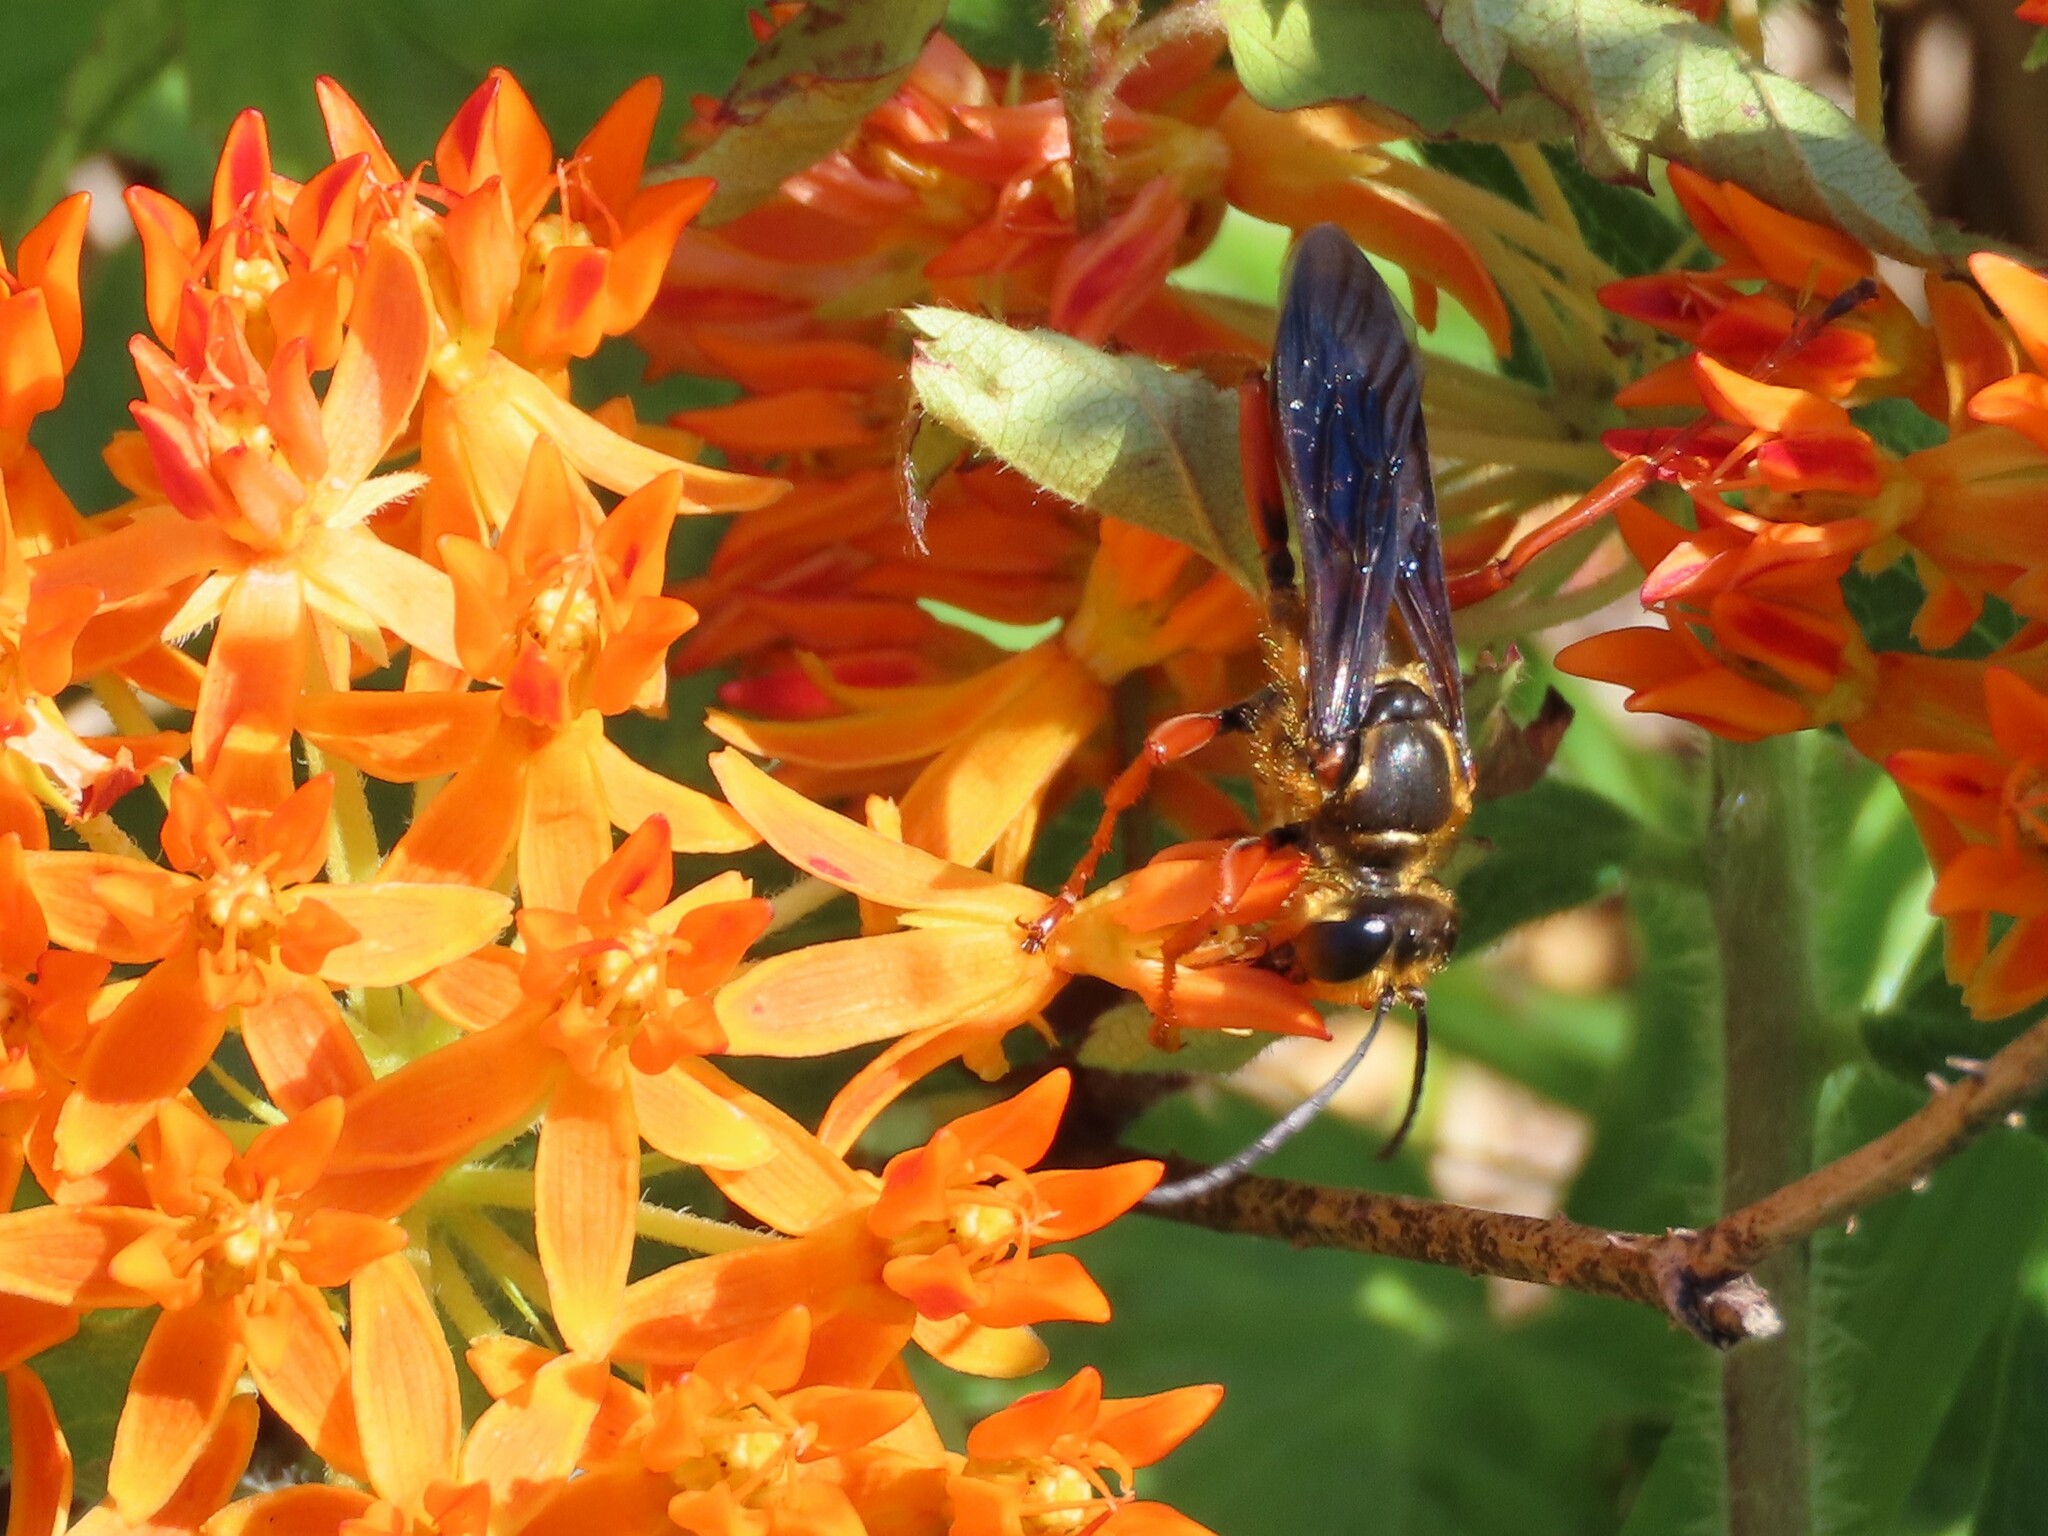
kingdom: Animalia
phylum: Arthropoda
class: Insecta
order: Hymenoptera
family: Sphecidae
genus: Sphex
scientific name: Sphex ichneumoneus
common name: Great golden digger wasp
